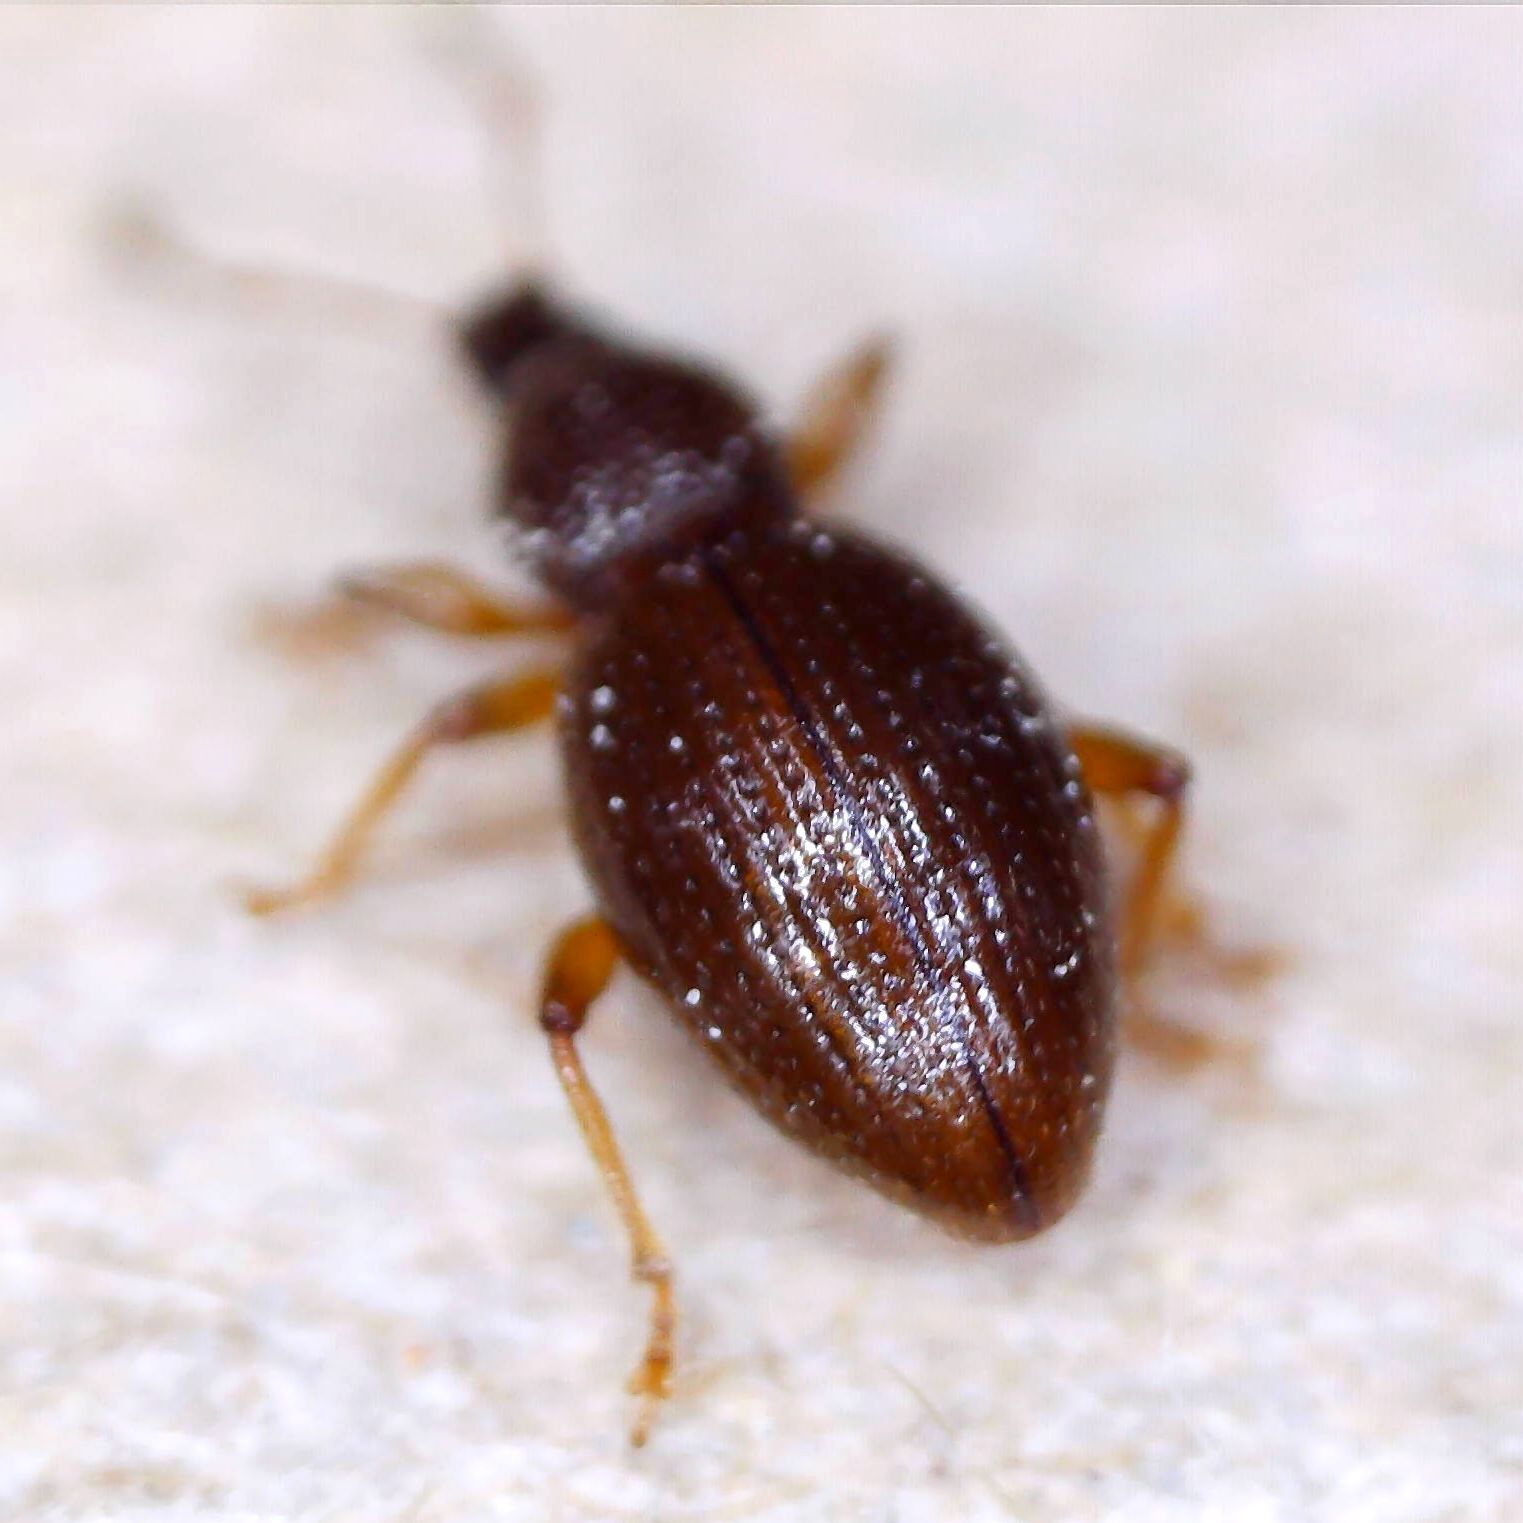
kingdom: Animalia
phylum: Arthropoda
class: Insecta
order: Coleoptera
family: Curculionidae
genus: Exomias
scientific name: Exomias araneiformis
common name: Spider weevil
